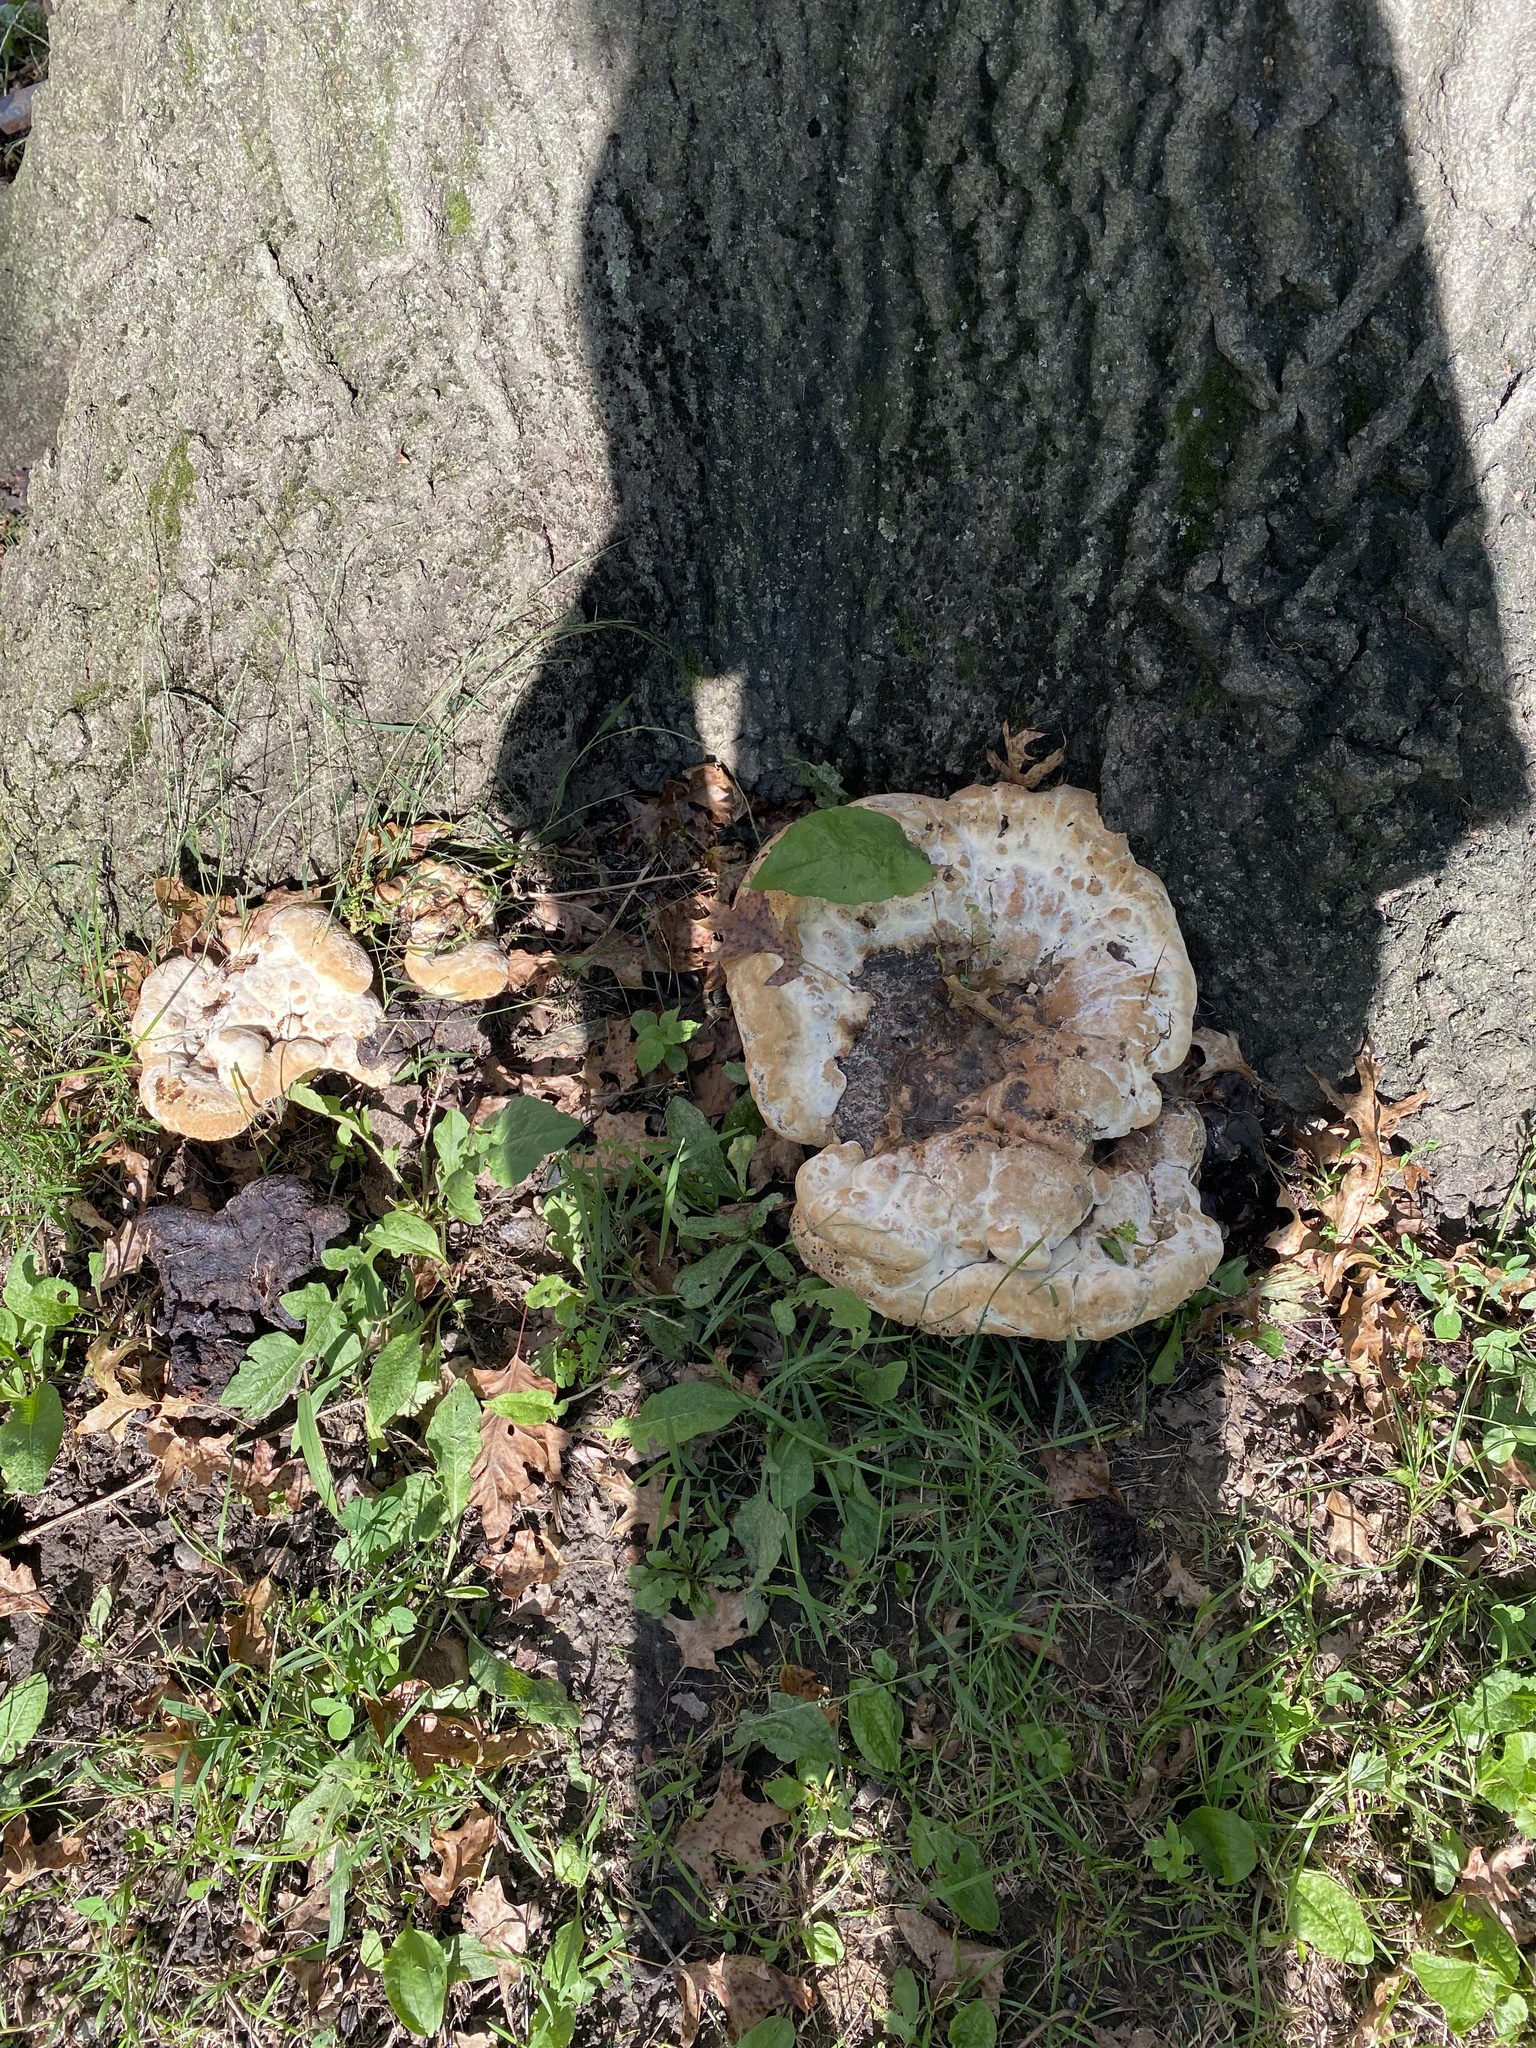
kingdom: Fungi
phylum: Basidiomycota
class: Agaricomycetes
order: Hymenochaetales
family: Hymenochaetaceae
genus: Pseudoinonotus
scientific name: Pseudoinonotus dryadeus
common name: Oak bracket
